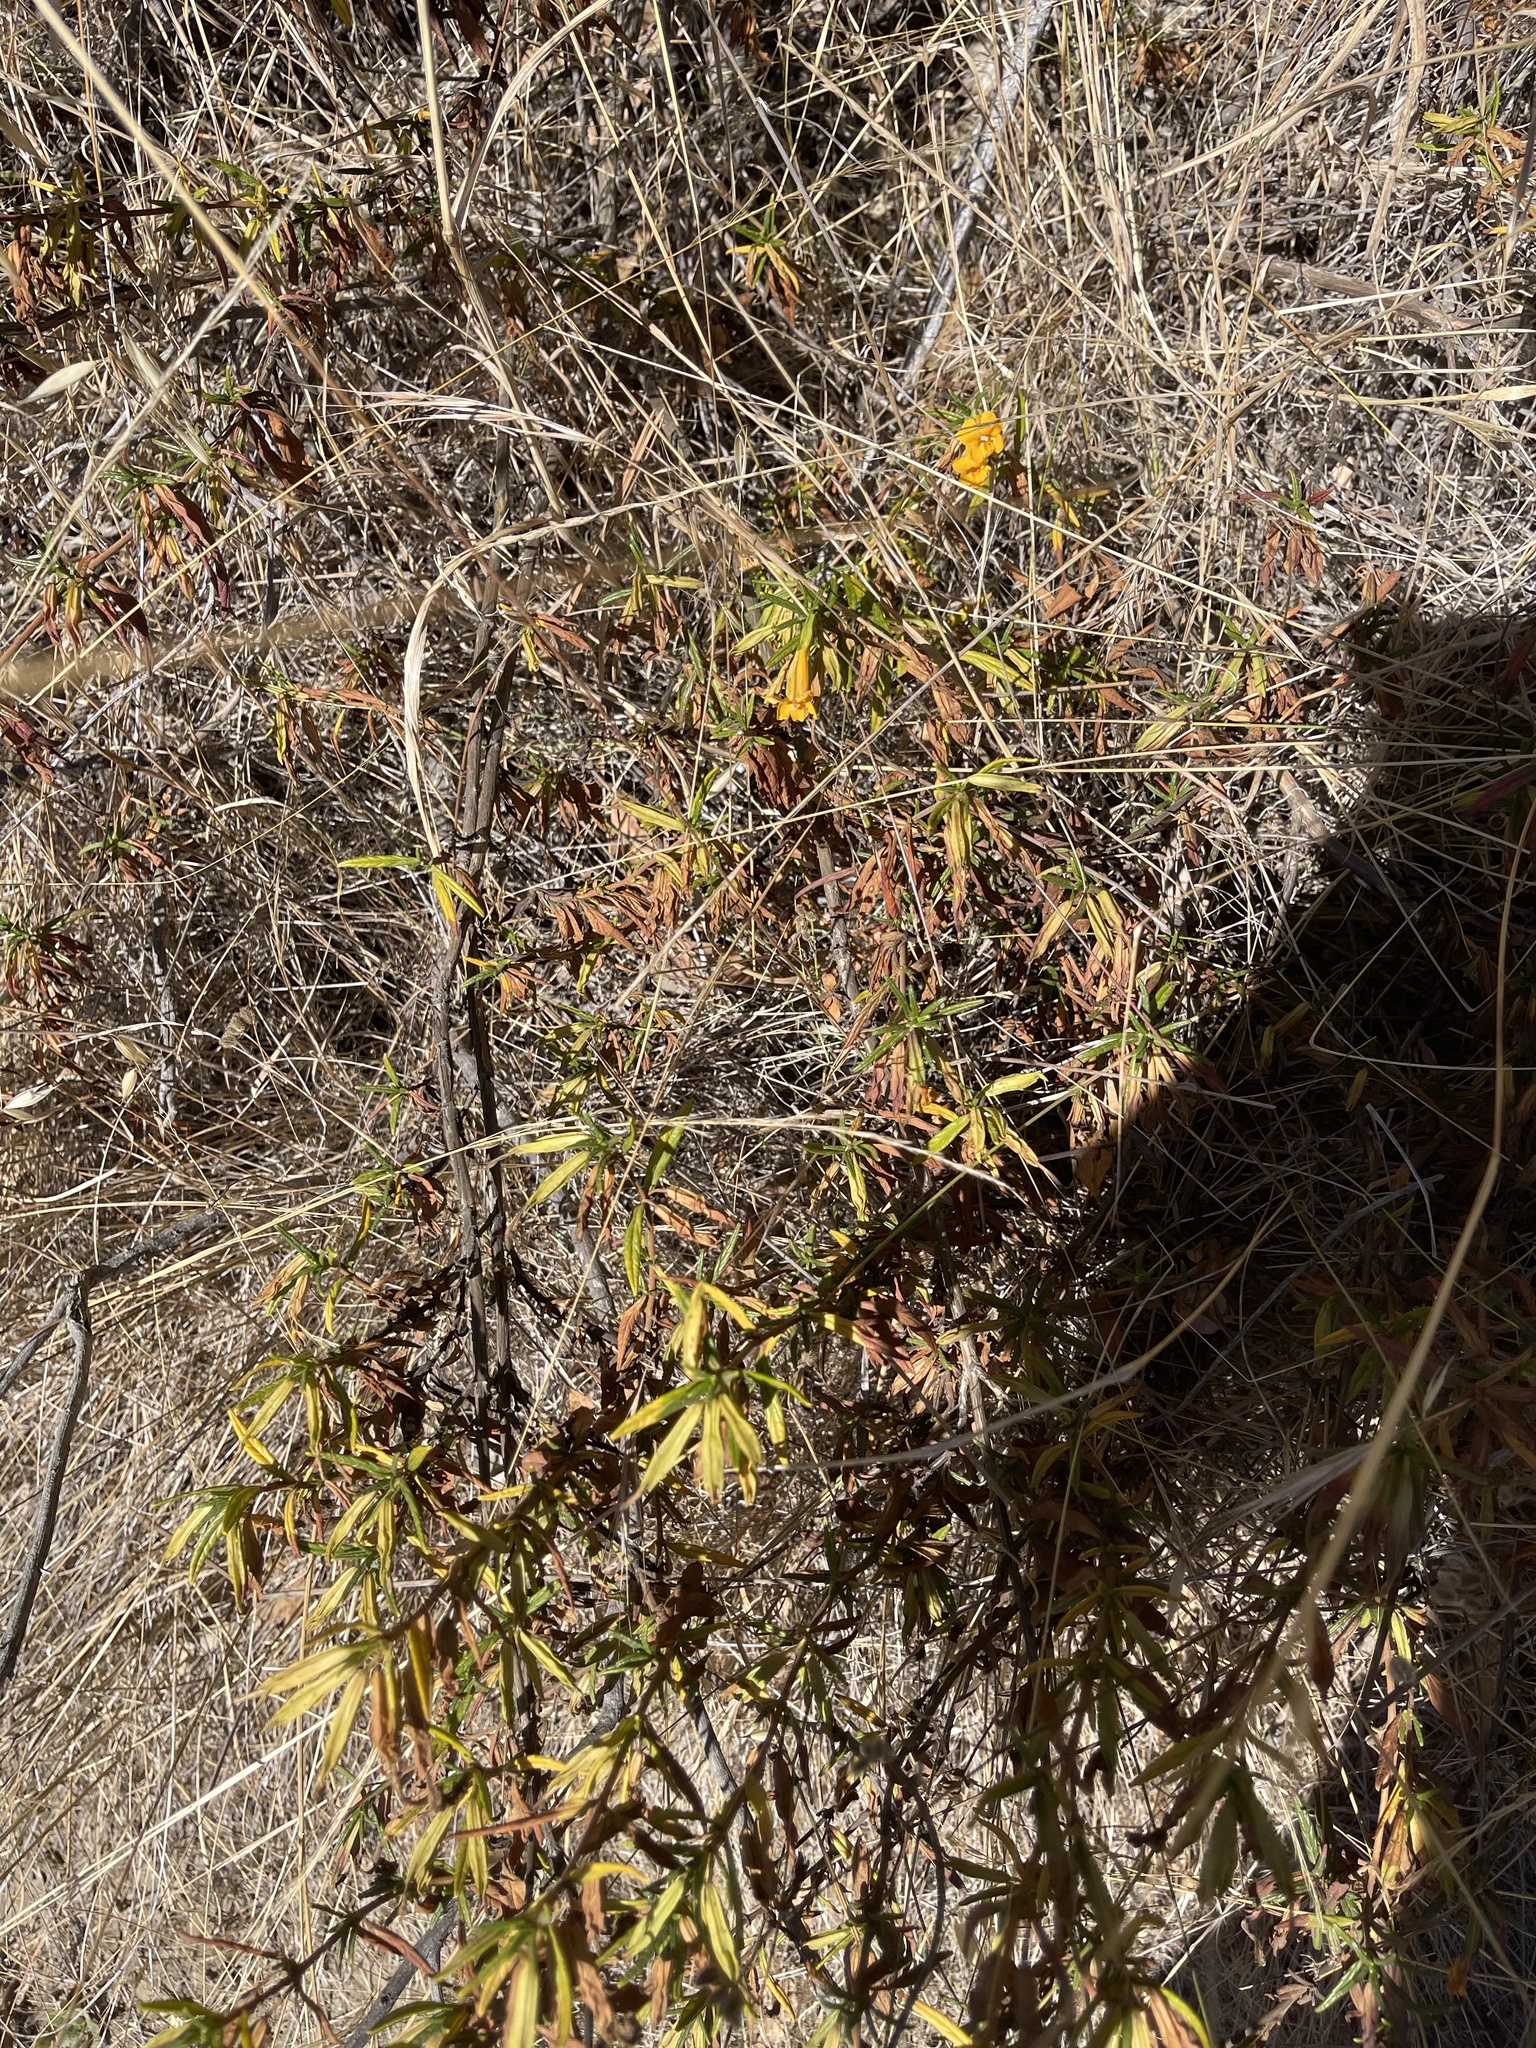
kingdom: Plantae
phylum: Tracheophyta
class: Magnoliopsida
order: Lamiales
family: Phrymaceae
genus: Diplacus
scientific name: Diplacus aurantiacus
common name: Bush monkey-flower
